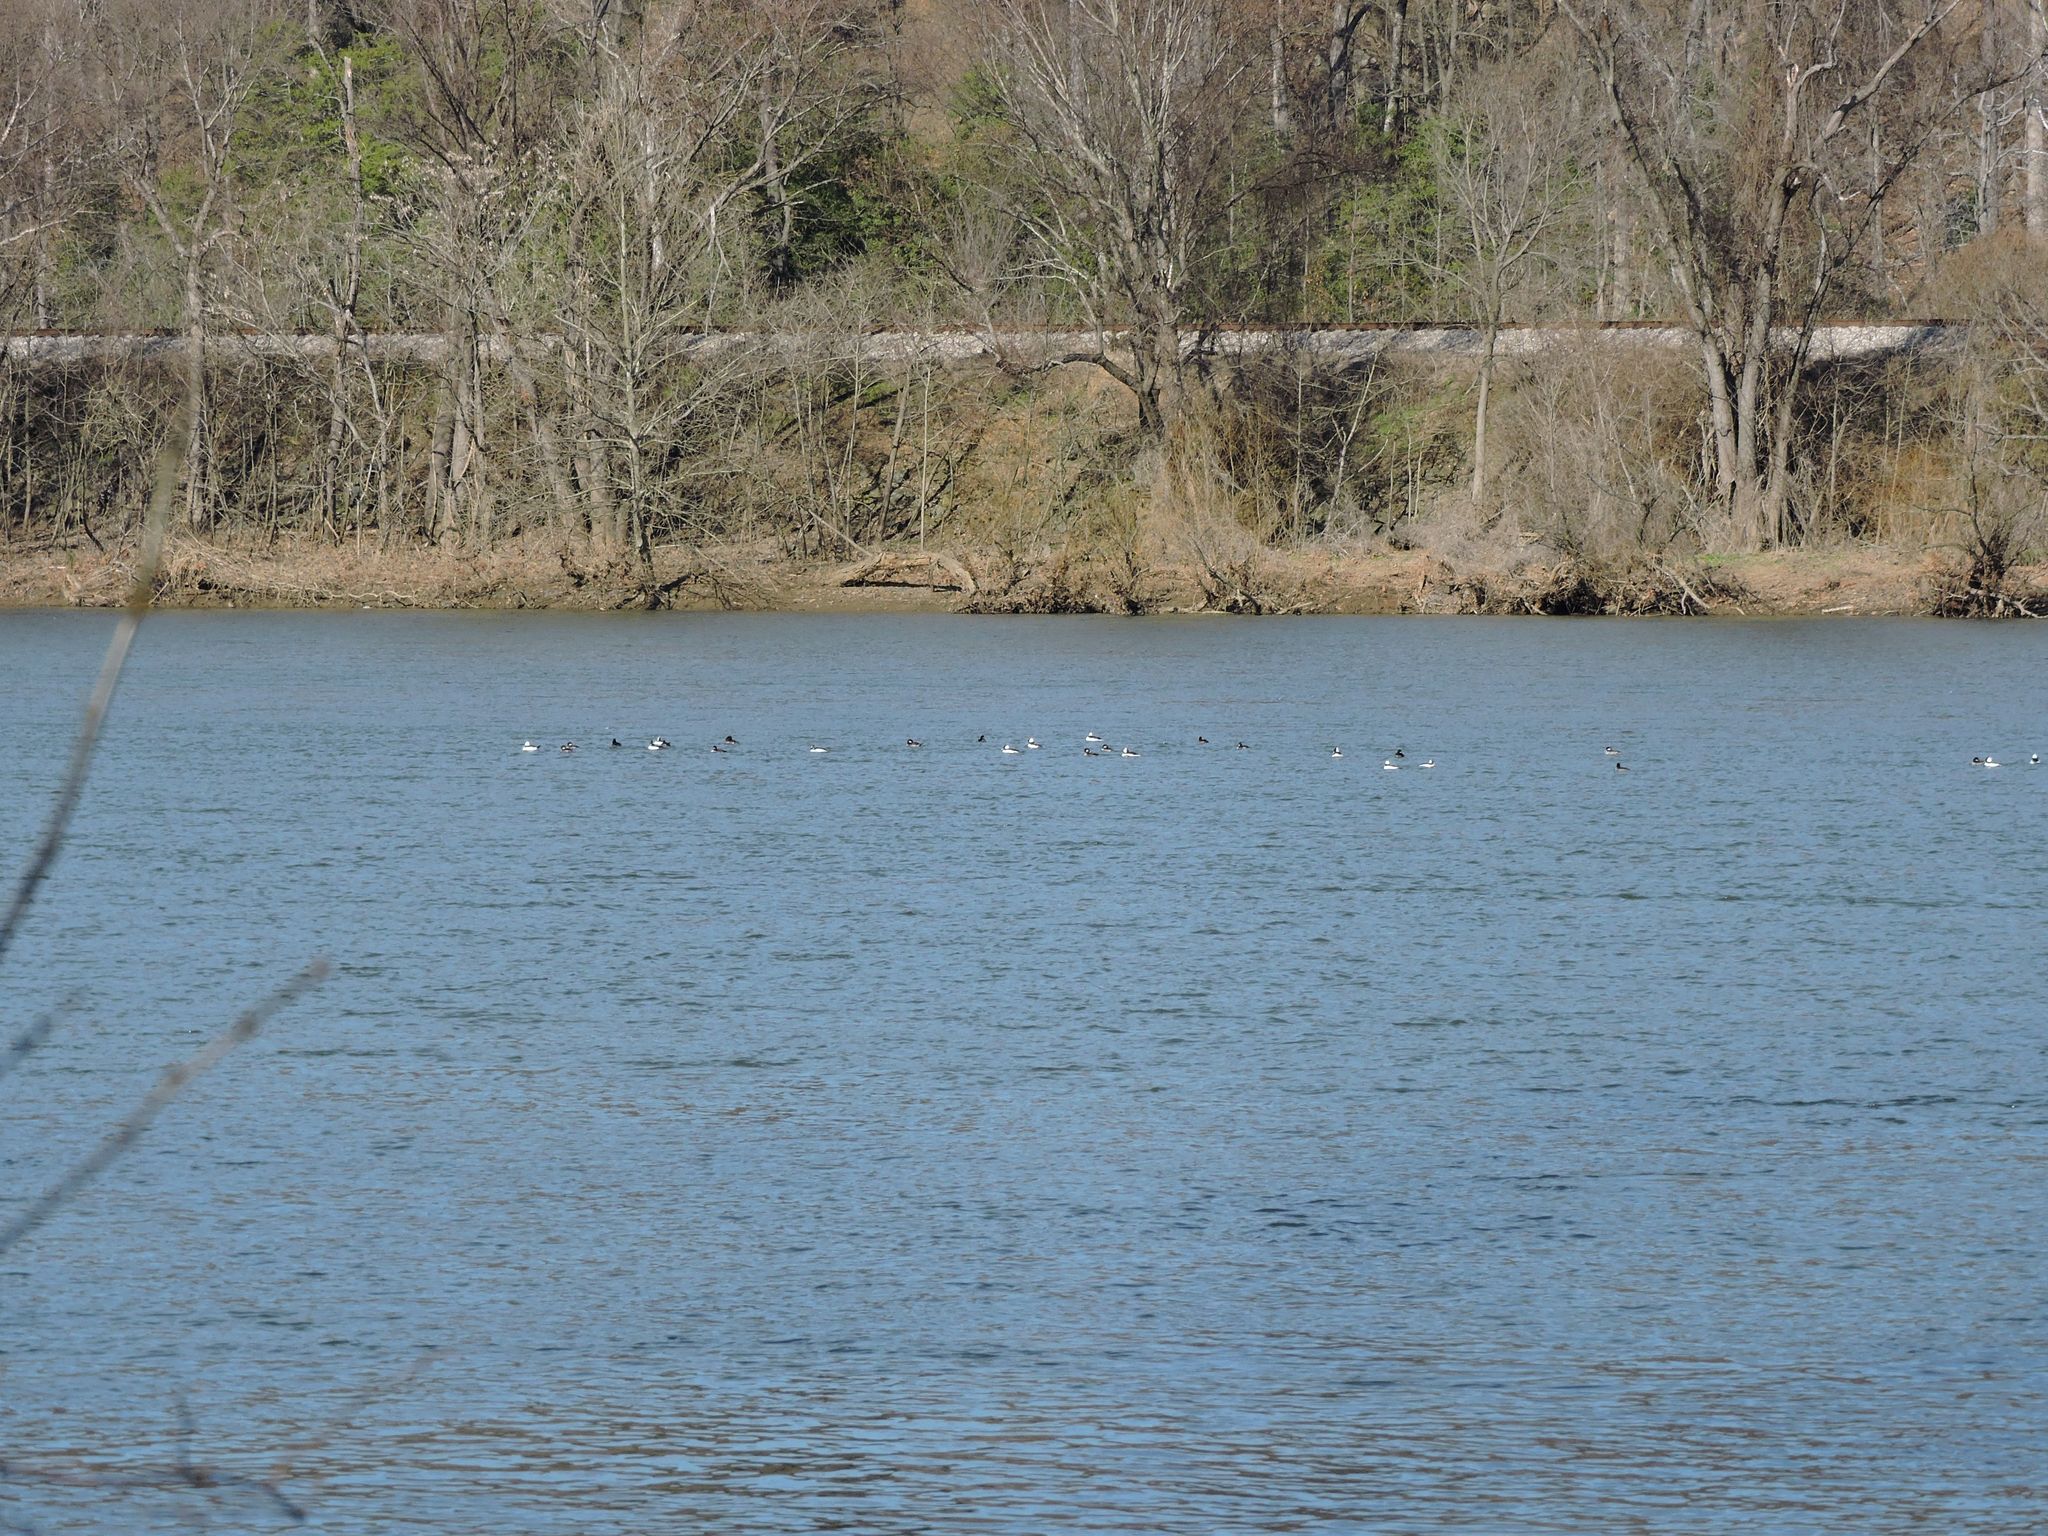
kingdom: Animalia
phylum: Chordata
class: Aves
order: Anseriformes
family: Anatidae
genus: Bucephala
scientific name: Bucephala albeola
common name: Bufflehead
